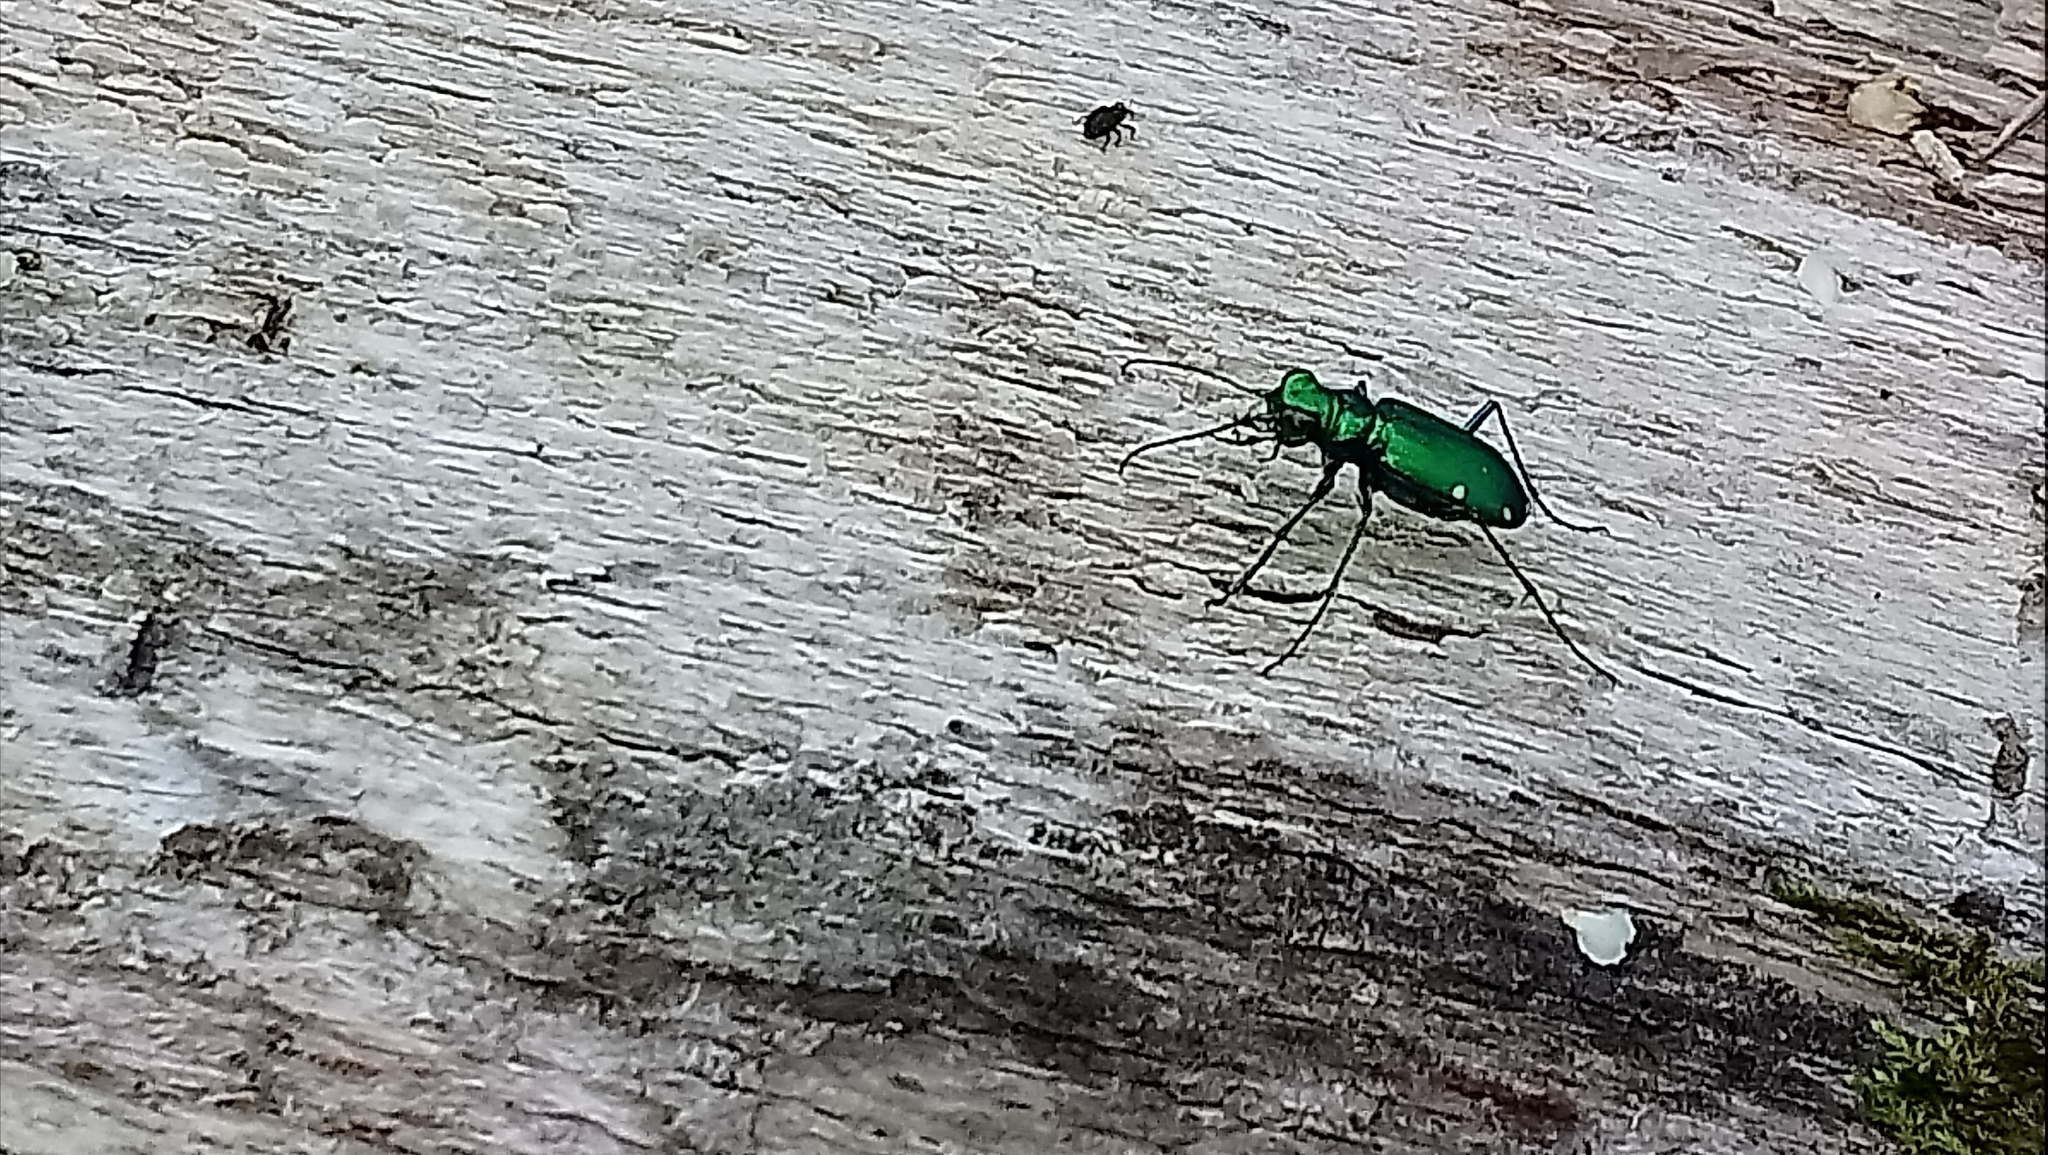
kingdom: Animalia
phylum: Arthropoda
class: Insecta
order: Coleoptera
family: Carabidae
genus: Cicindela
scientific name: Cicindela sexguttata
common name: Six-spotted tiger beetle
